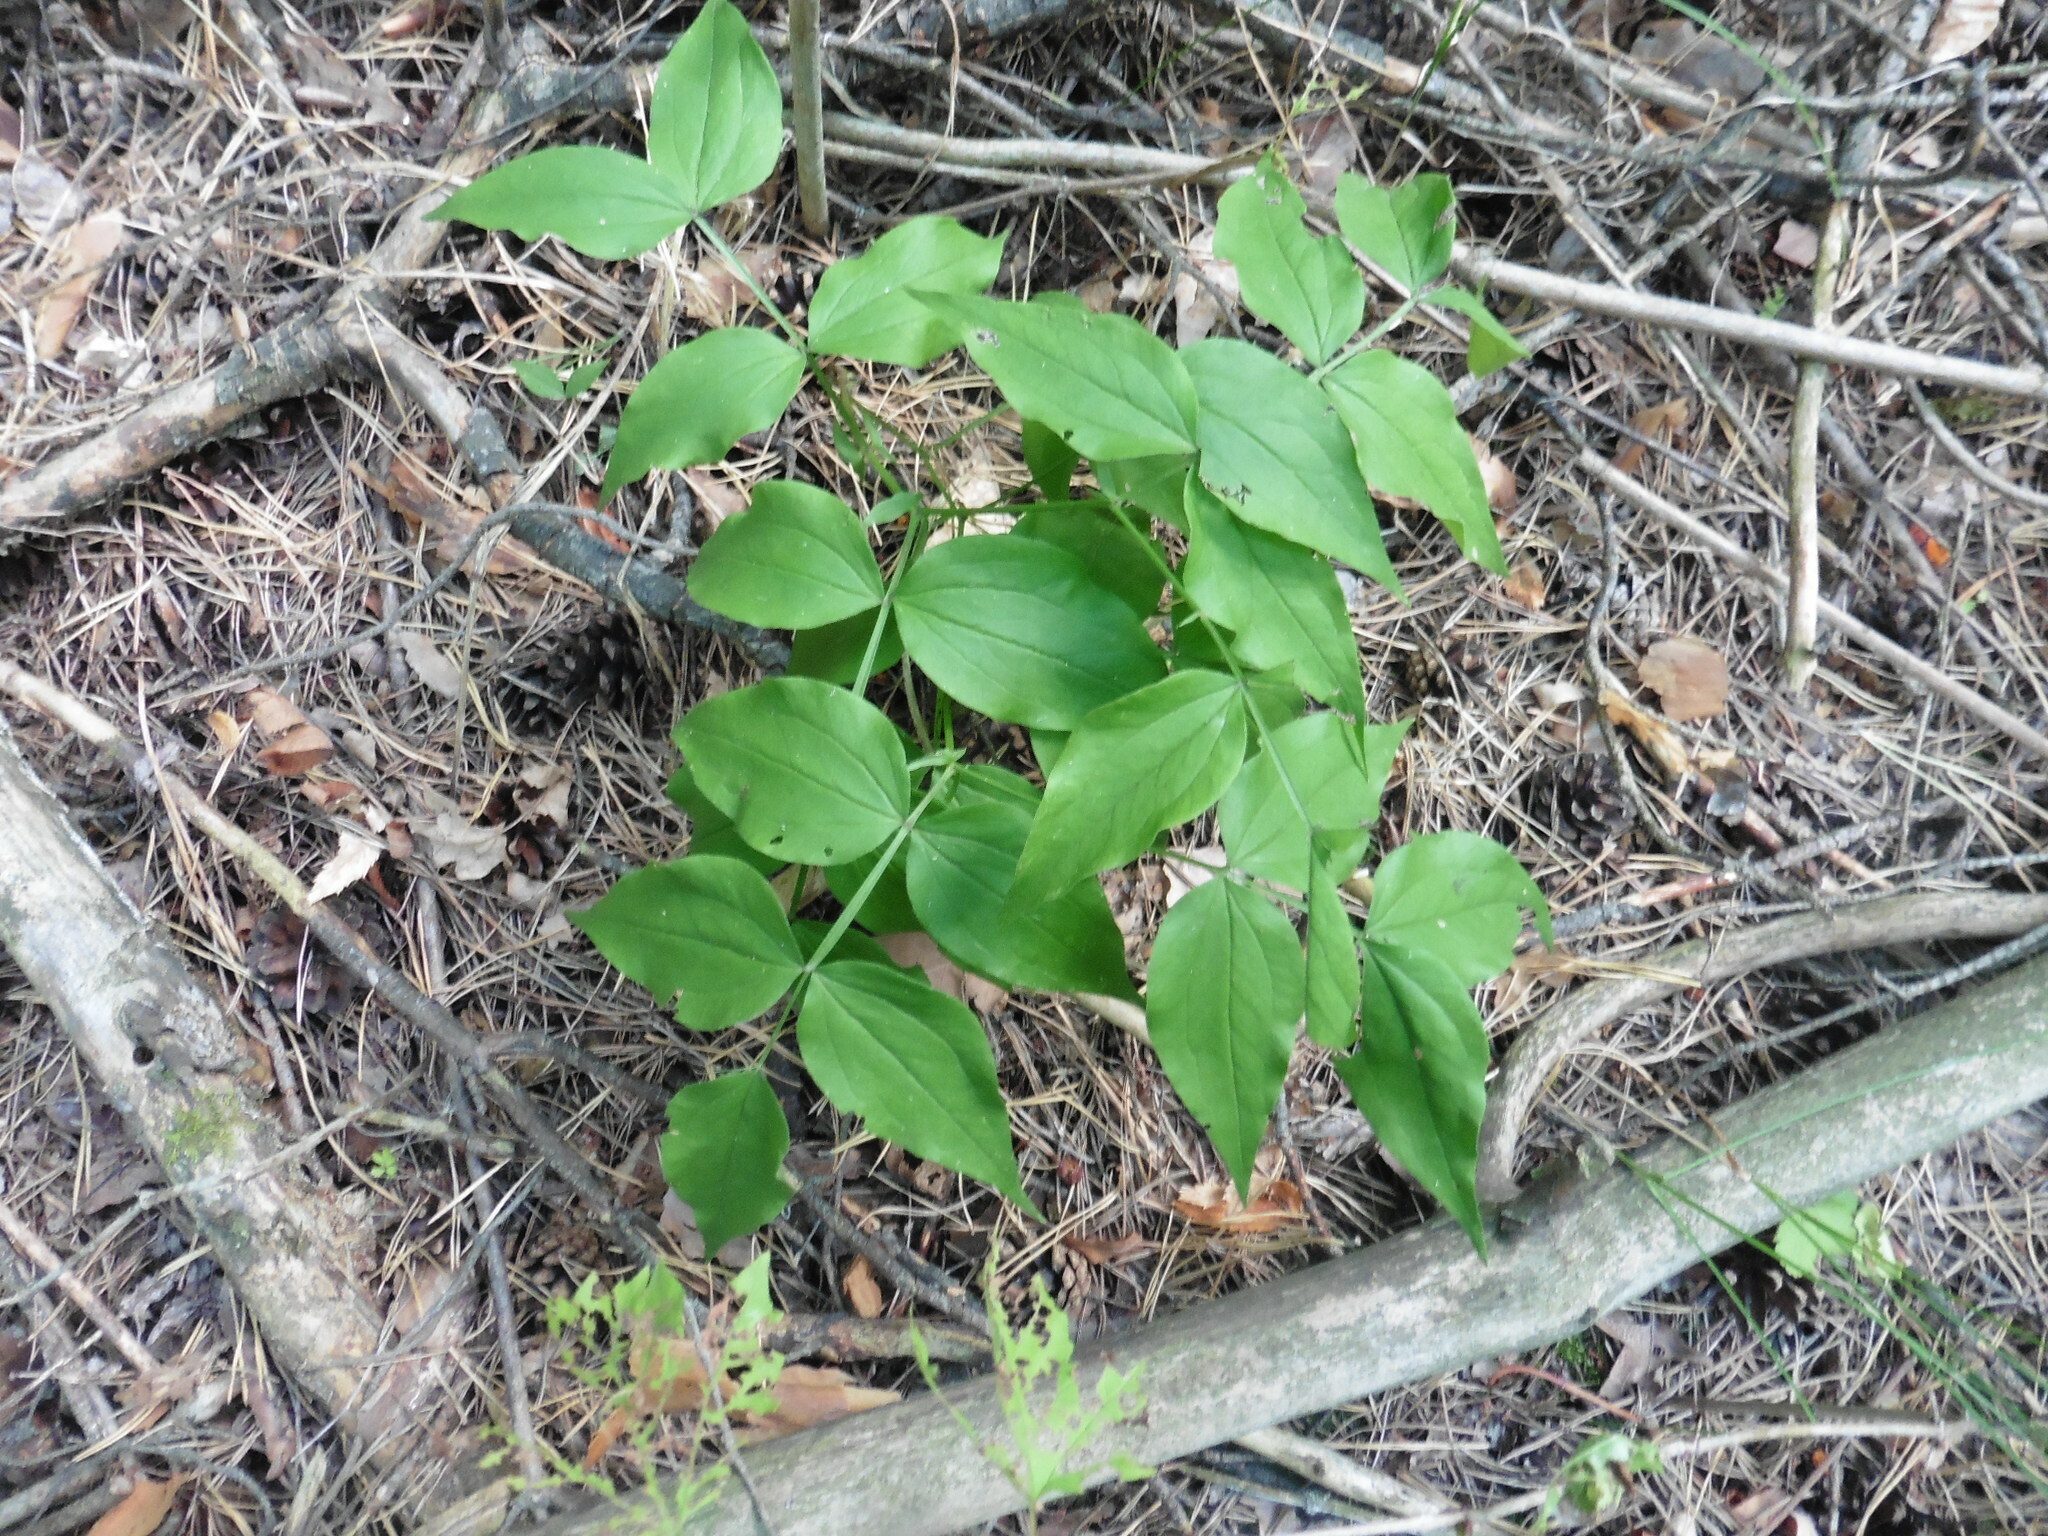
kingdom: Plantae
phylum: Tracheophyta
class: Magnoliopsida
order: Fabales
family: Fabaceae
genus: Lathyrus
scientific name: Lathyrus vernus
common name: Spring pea
